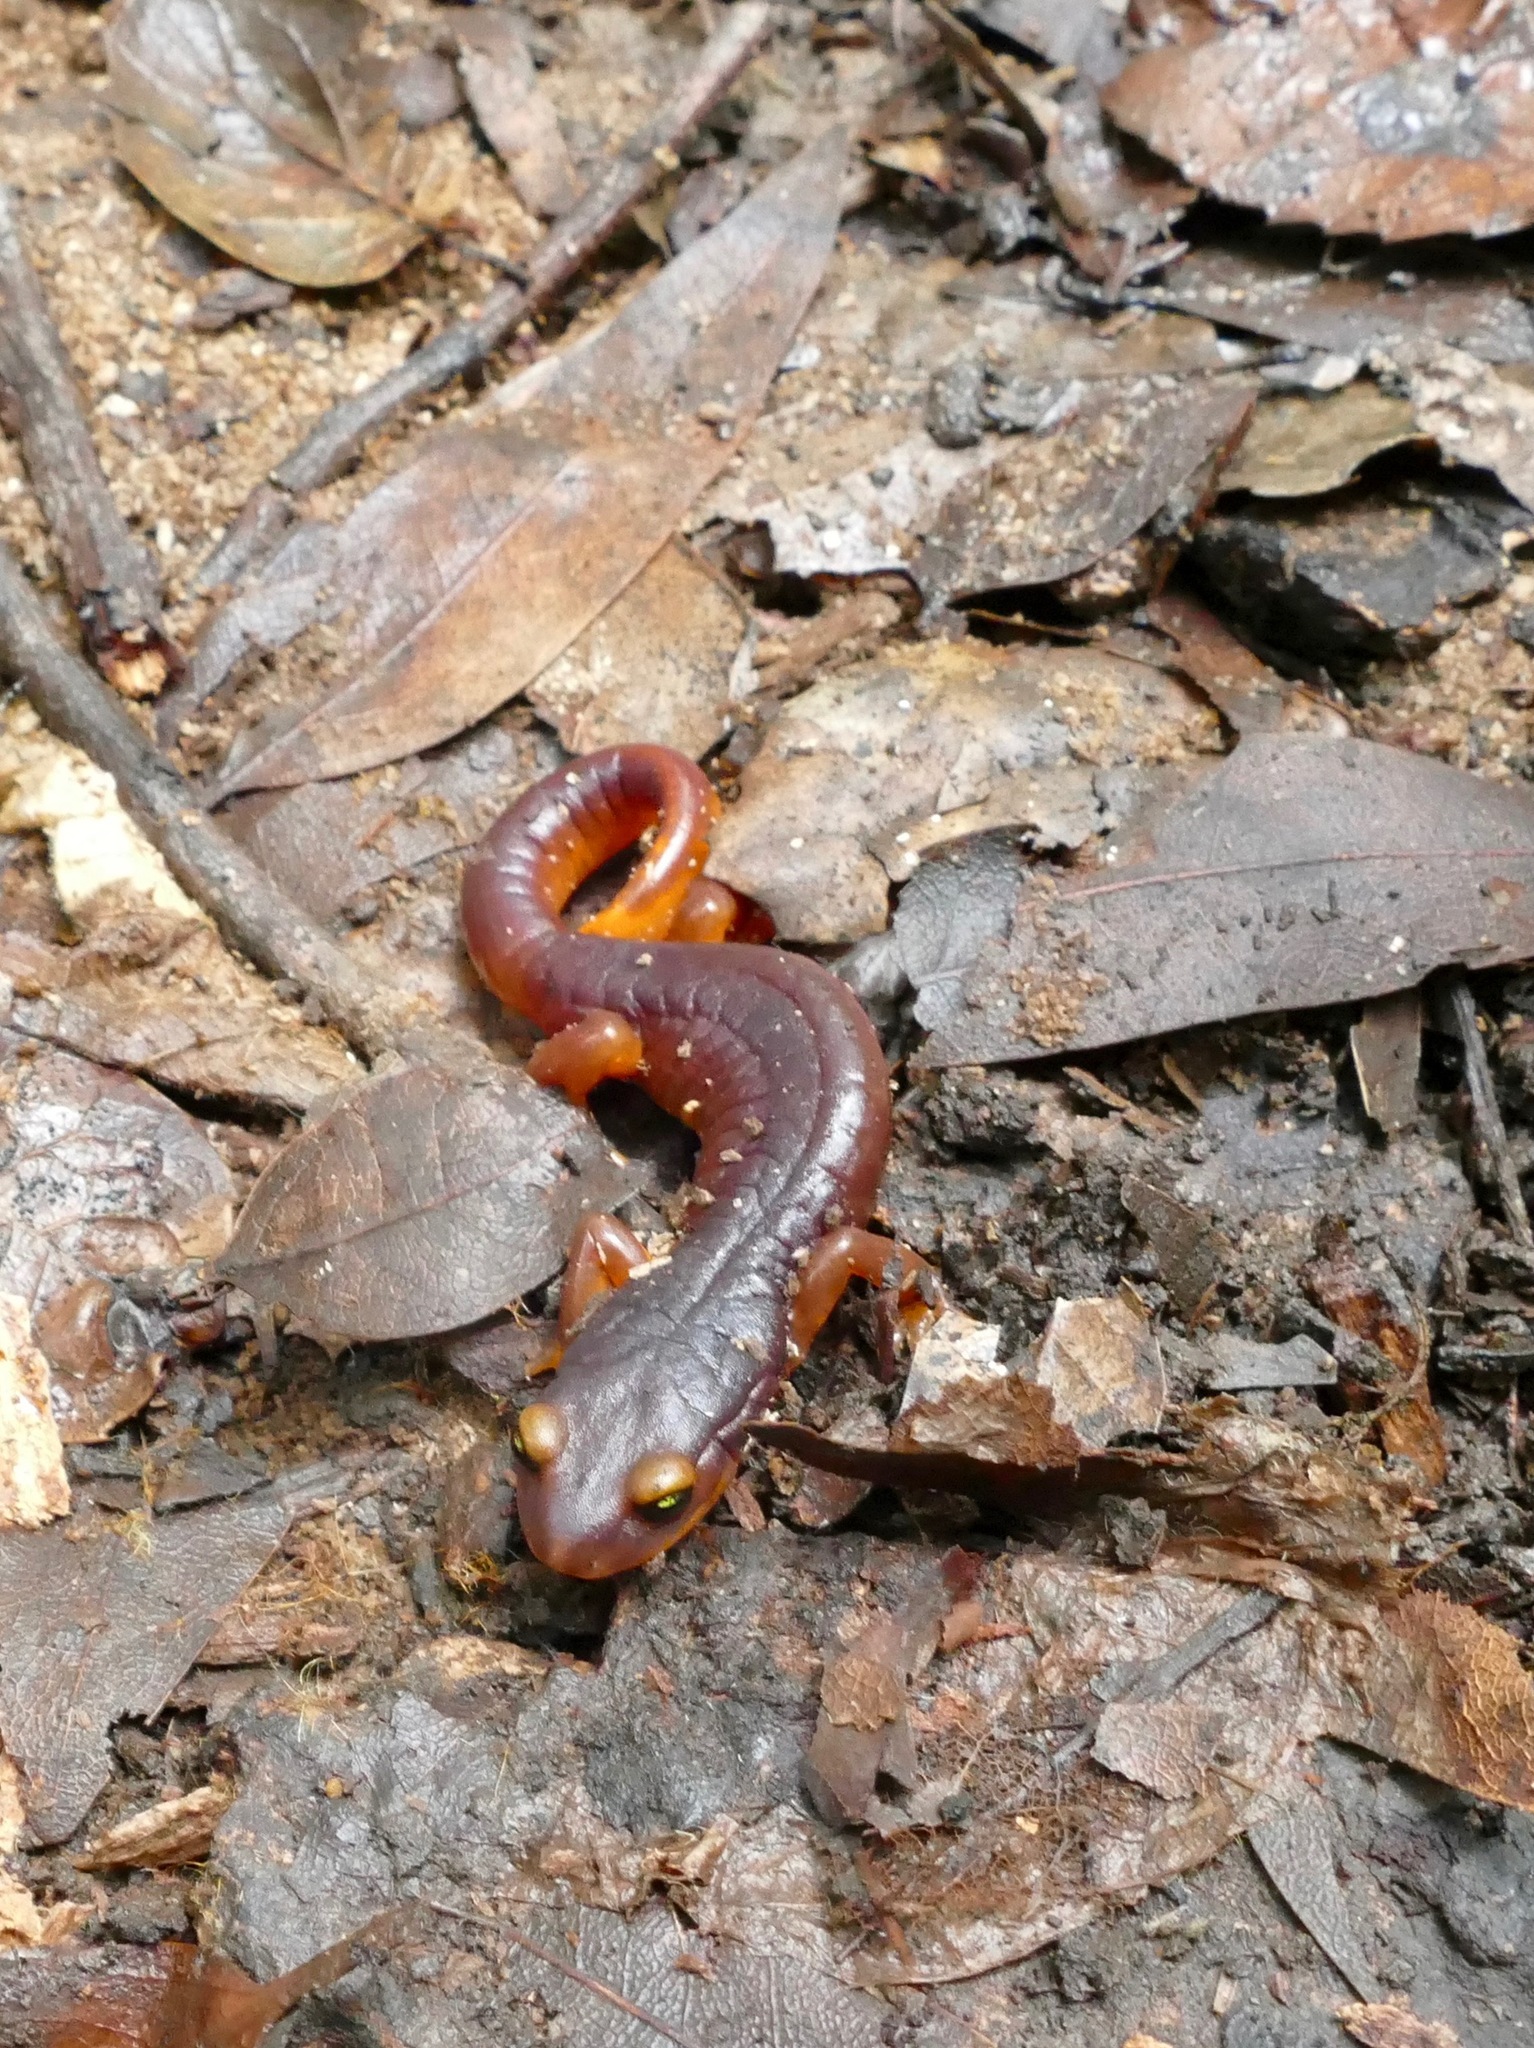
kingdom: Animalia
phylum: Chordata
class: Amphibia
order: Caudata
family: Plethodontidae
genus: Ensatina
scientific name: Ensatina eschscholtzii
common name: Ensatina
